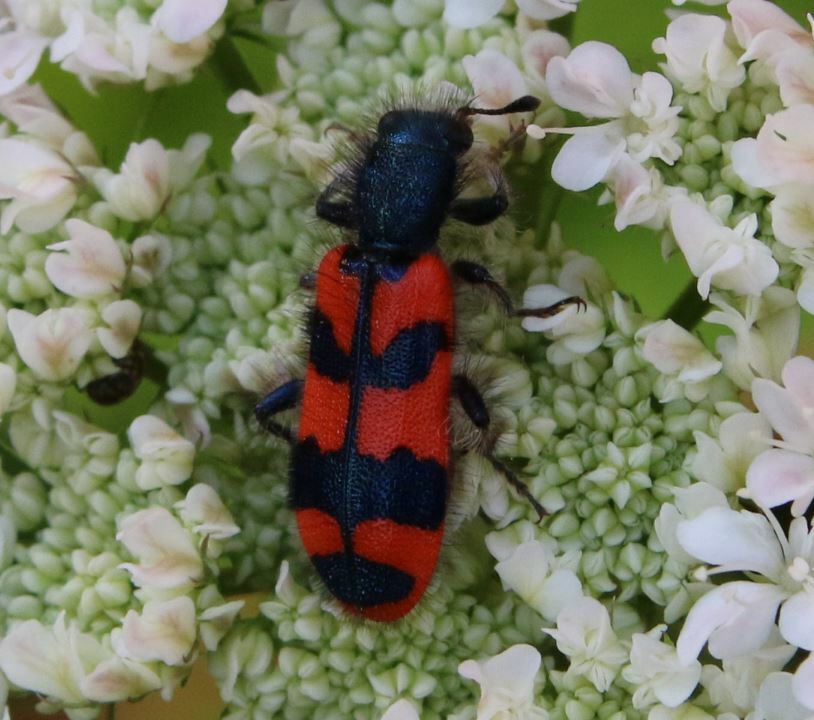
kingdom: Animalia
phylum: Arthropoda
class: Insecta
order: Coleoptera
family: Cleridae
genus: Trichodes
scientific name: Trichodes alvearius
